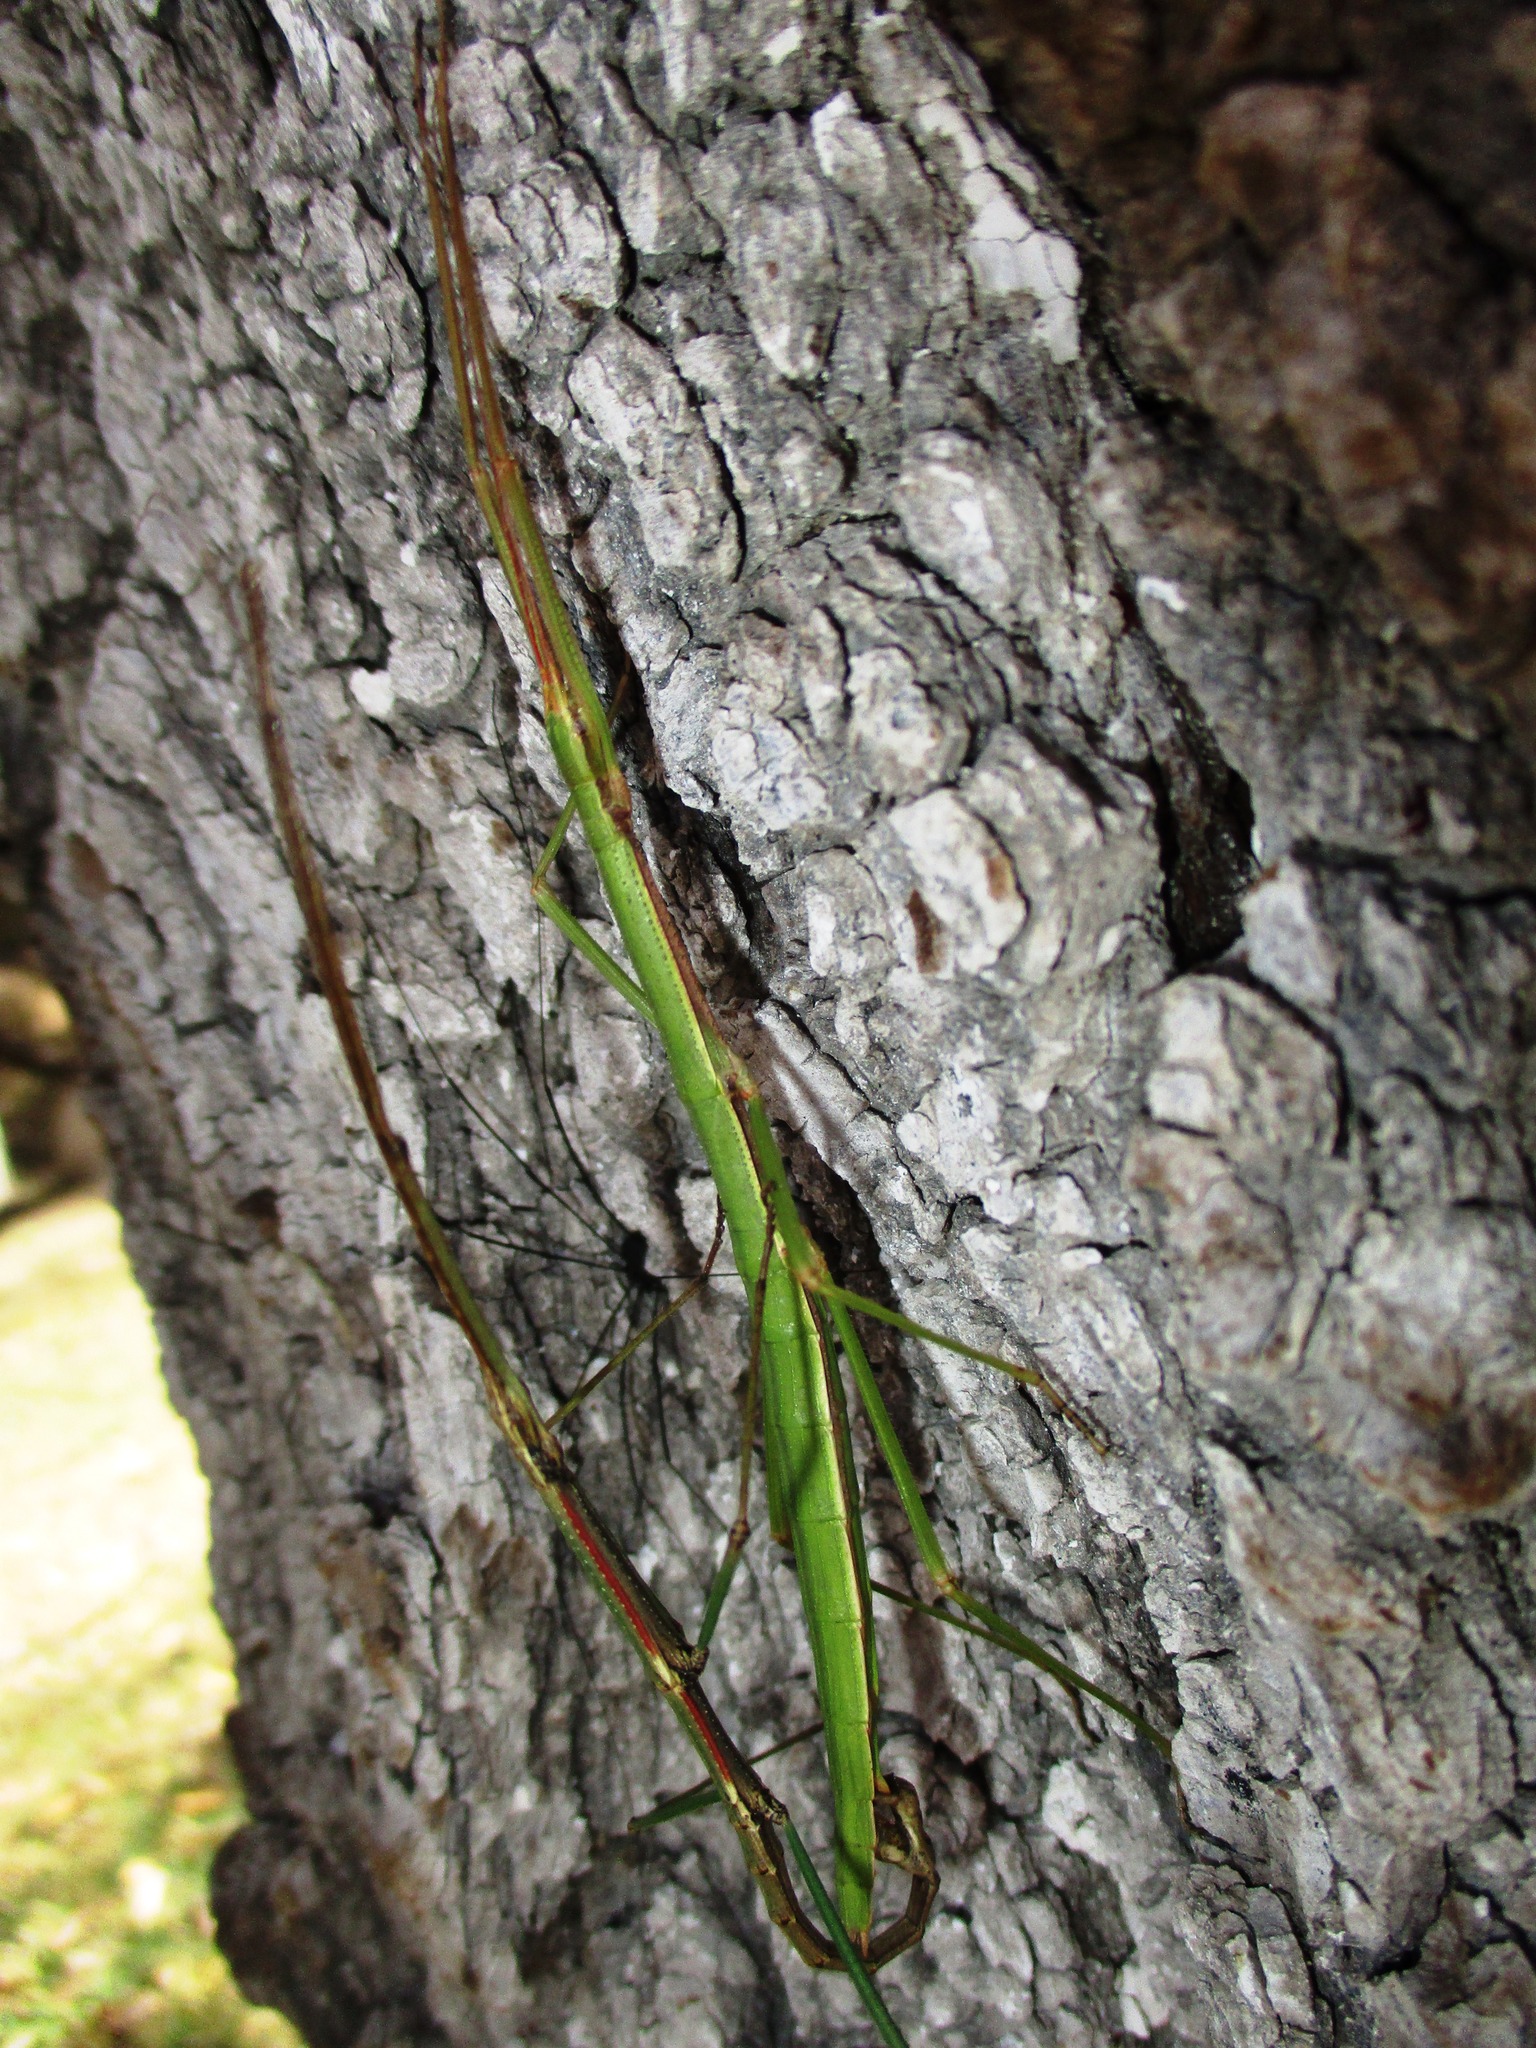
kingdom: Animalia
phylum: Arthropoda
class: Insecta
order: Phasmida
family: Diapheromeridae
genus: Pseudosermyle
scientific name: Pseudosermyle tridens
